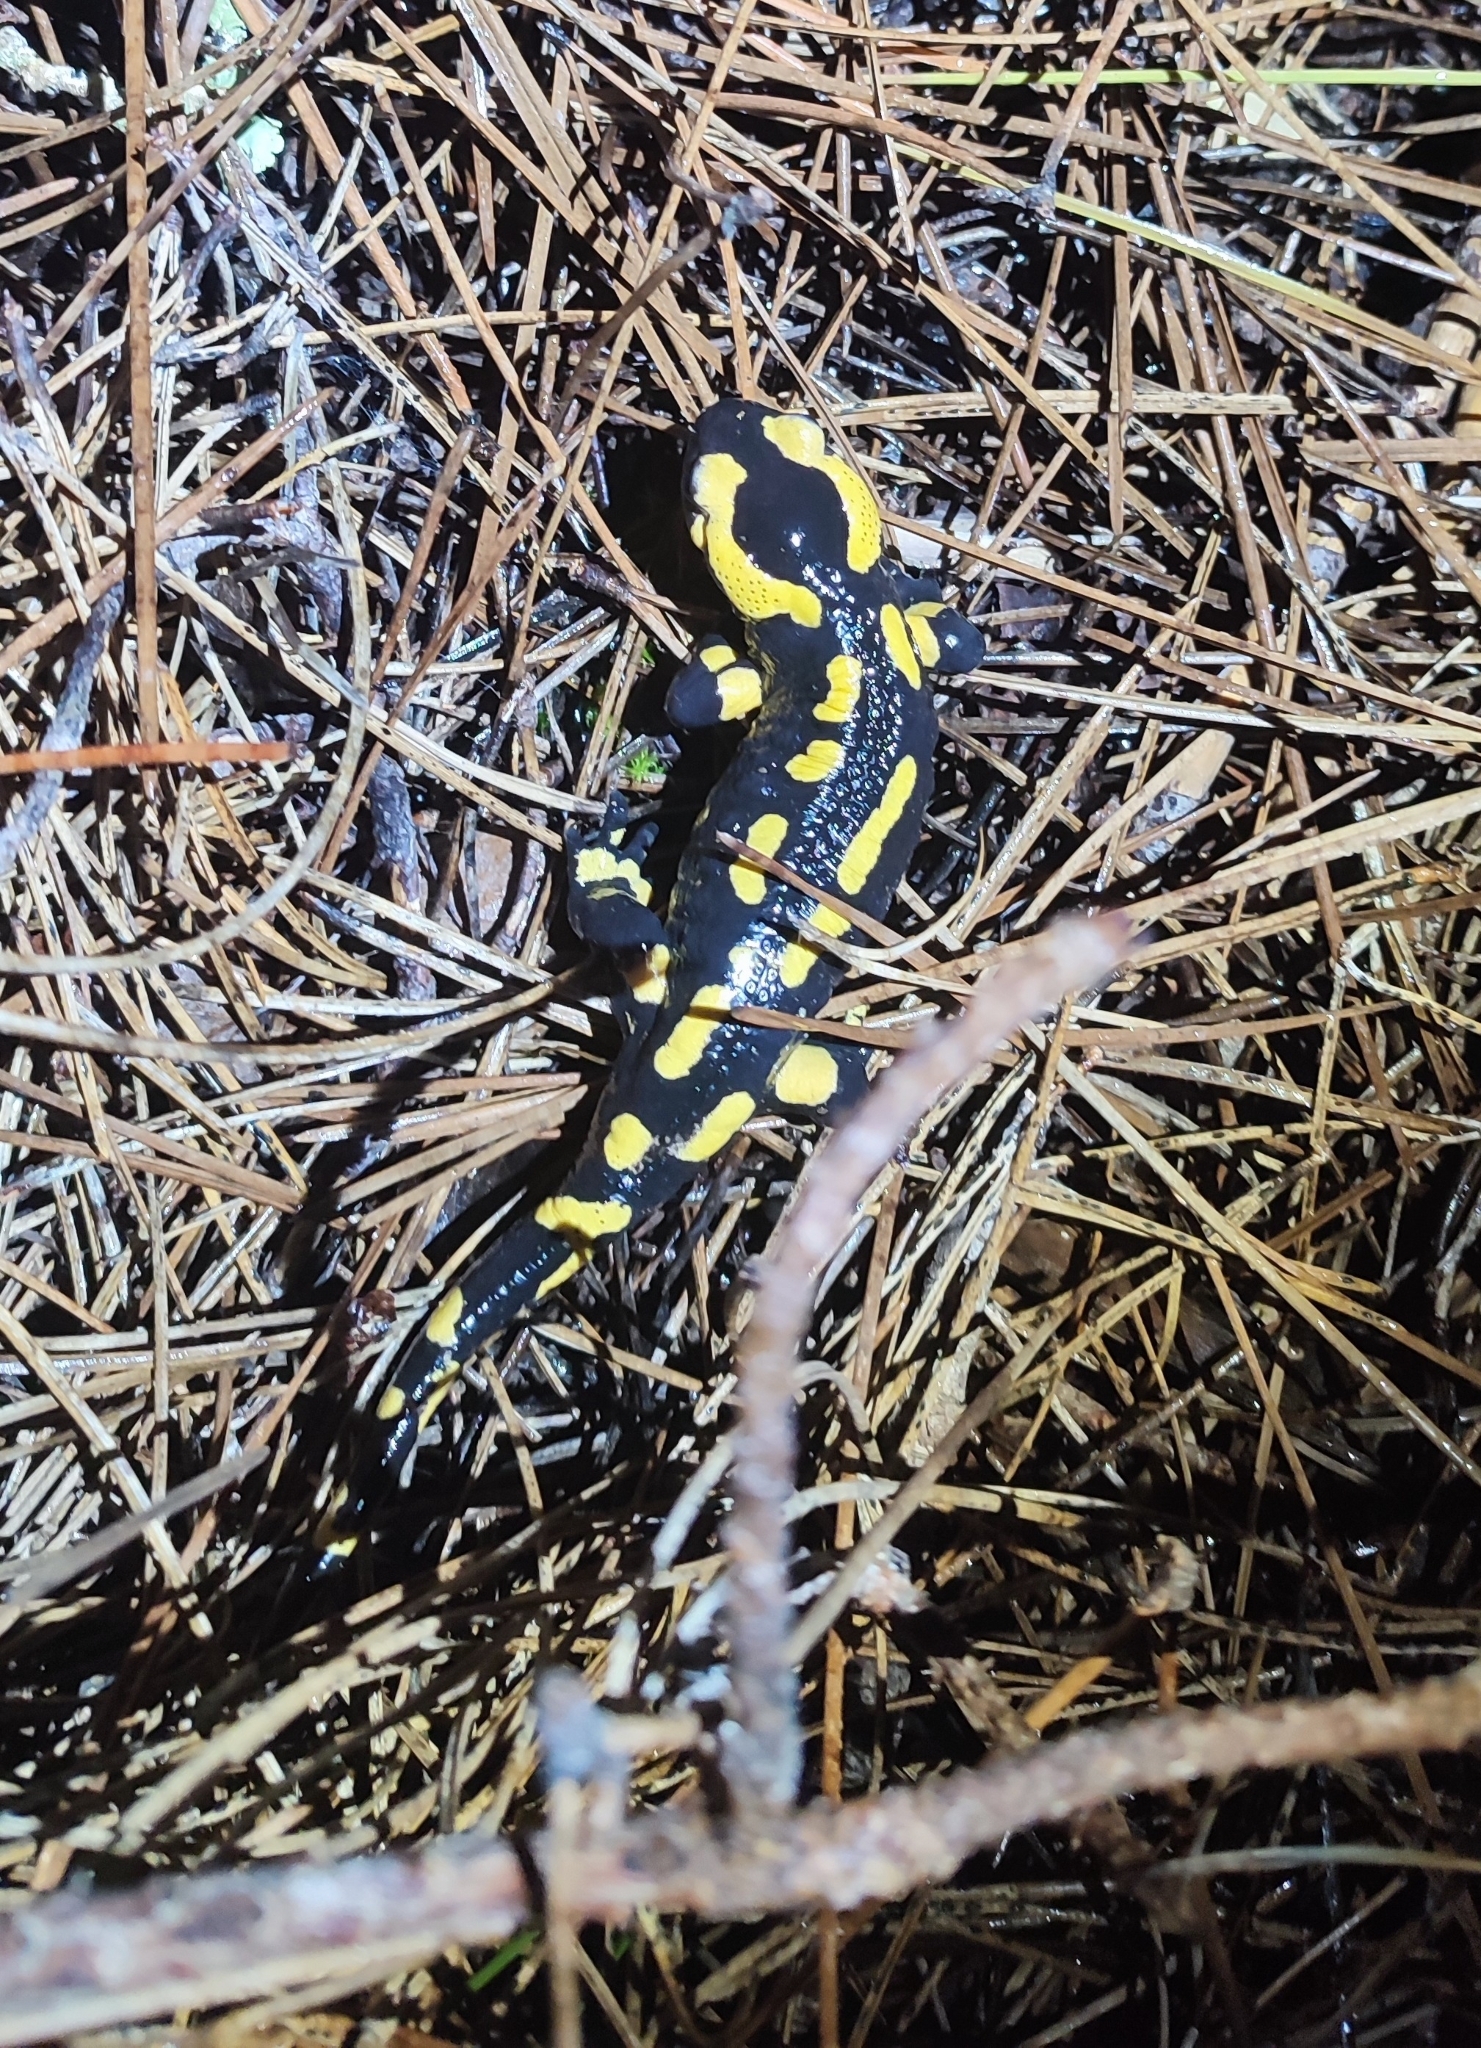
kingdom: Animalia
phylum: Chordata
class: Amphibia
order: Caudata
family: Salamandridae
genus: Salamandra
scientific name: Salamandra salamandra
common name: Fire salamander
